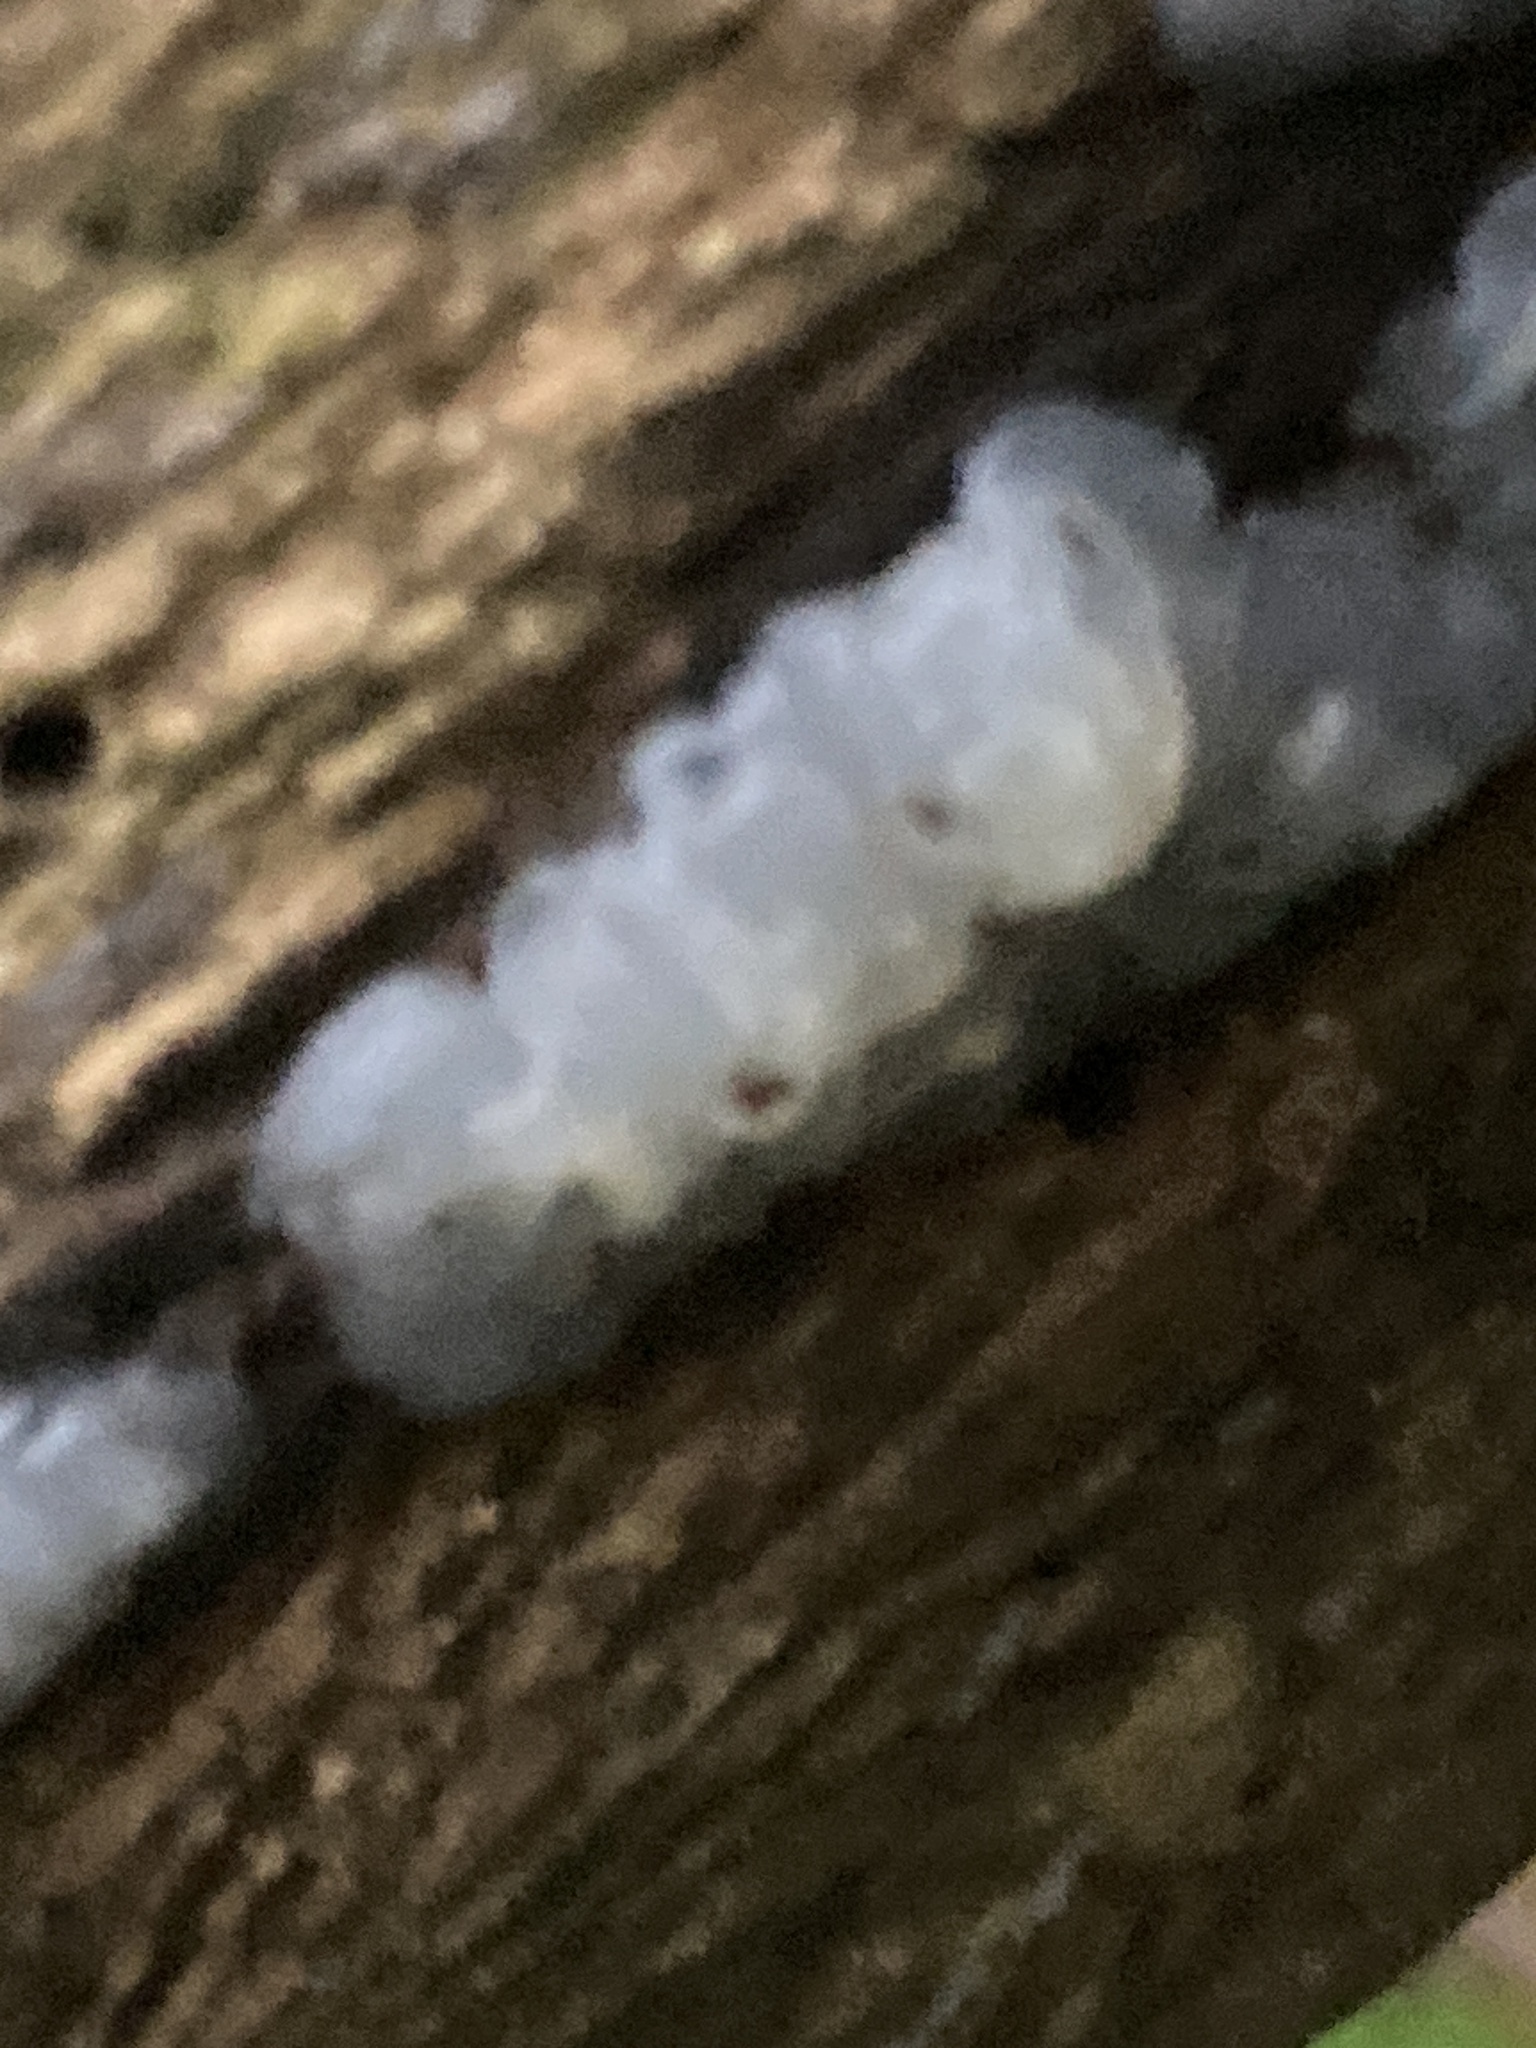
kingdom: Fungi
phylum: Basidiomycota
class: Agaricomycetes
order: Auriculariales
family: Hyaloriaceae
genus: Myxarium
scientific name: Myxarium nucleatum
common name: Crystal brain fungus
